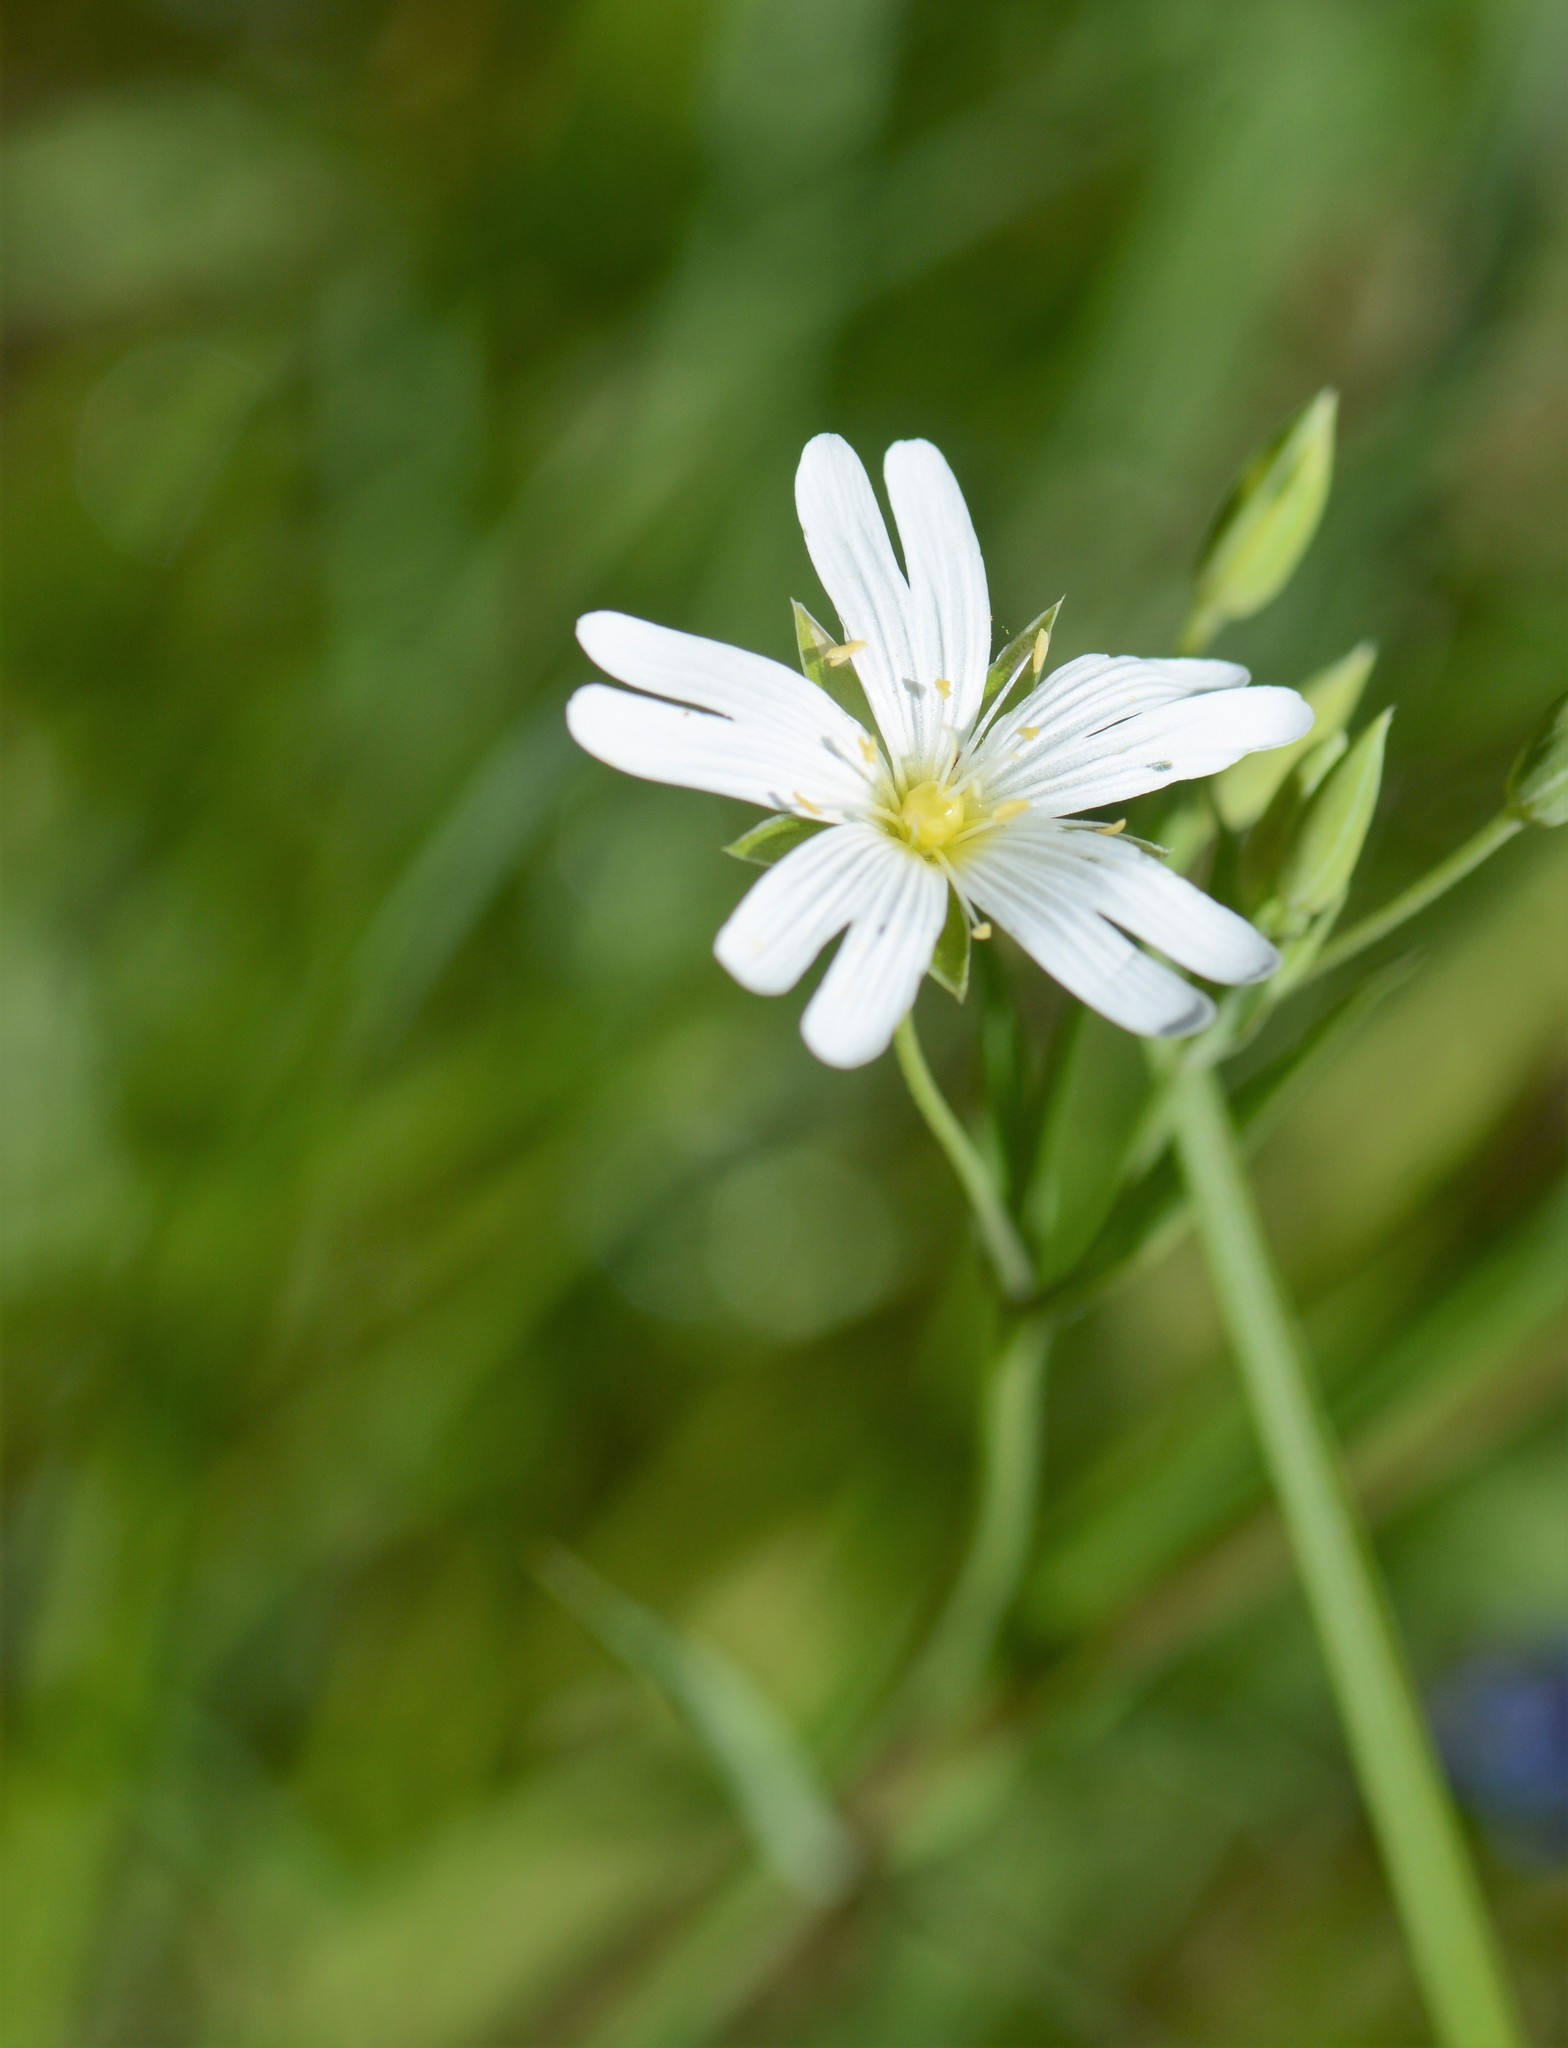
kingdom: Plantae
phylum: Tracheophyta
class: Magnoliopsida
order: Caryophyllales
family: Caryophyllaceae
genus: Rabelera
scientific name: Rabelera holostea
